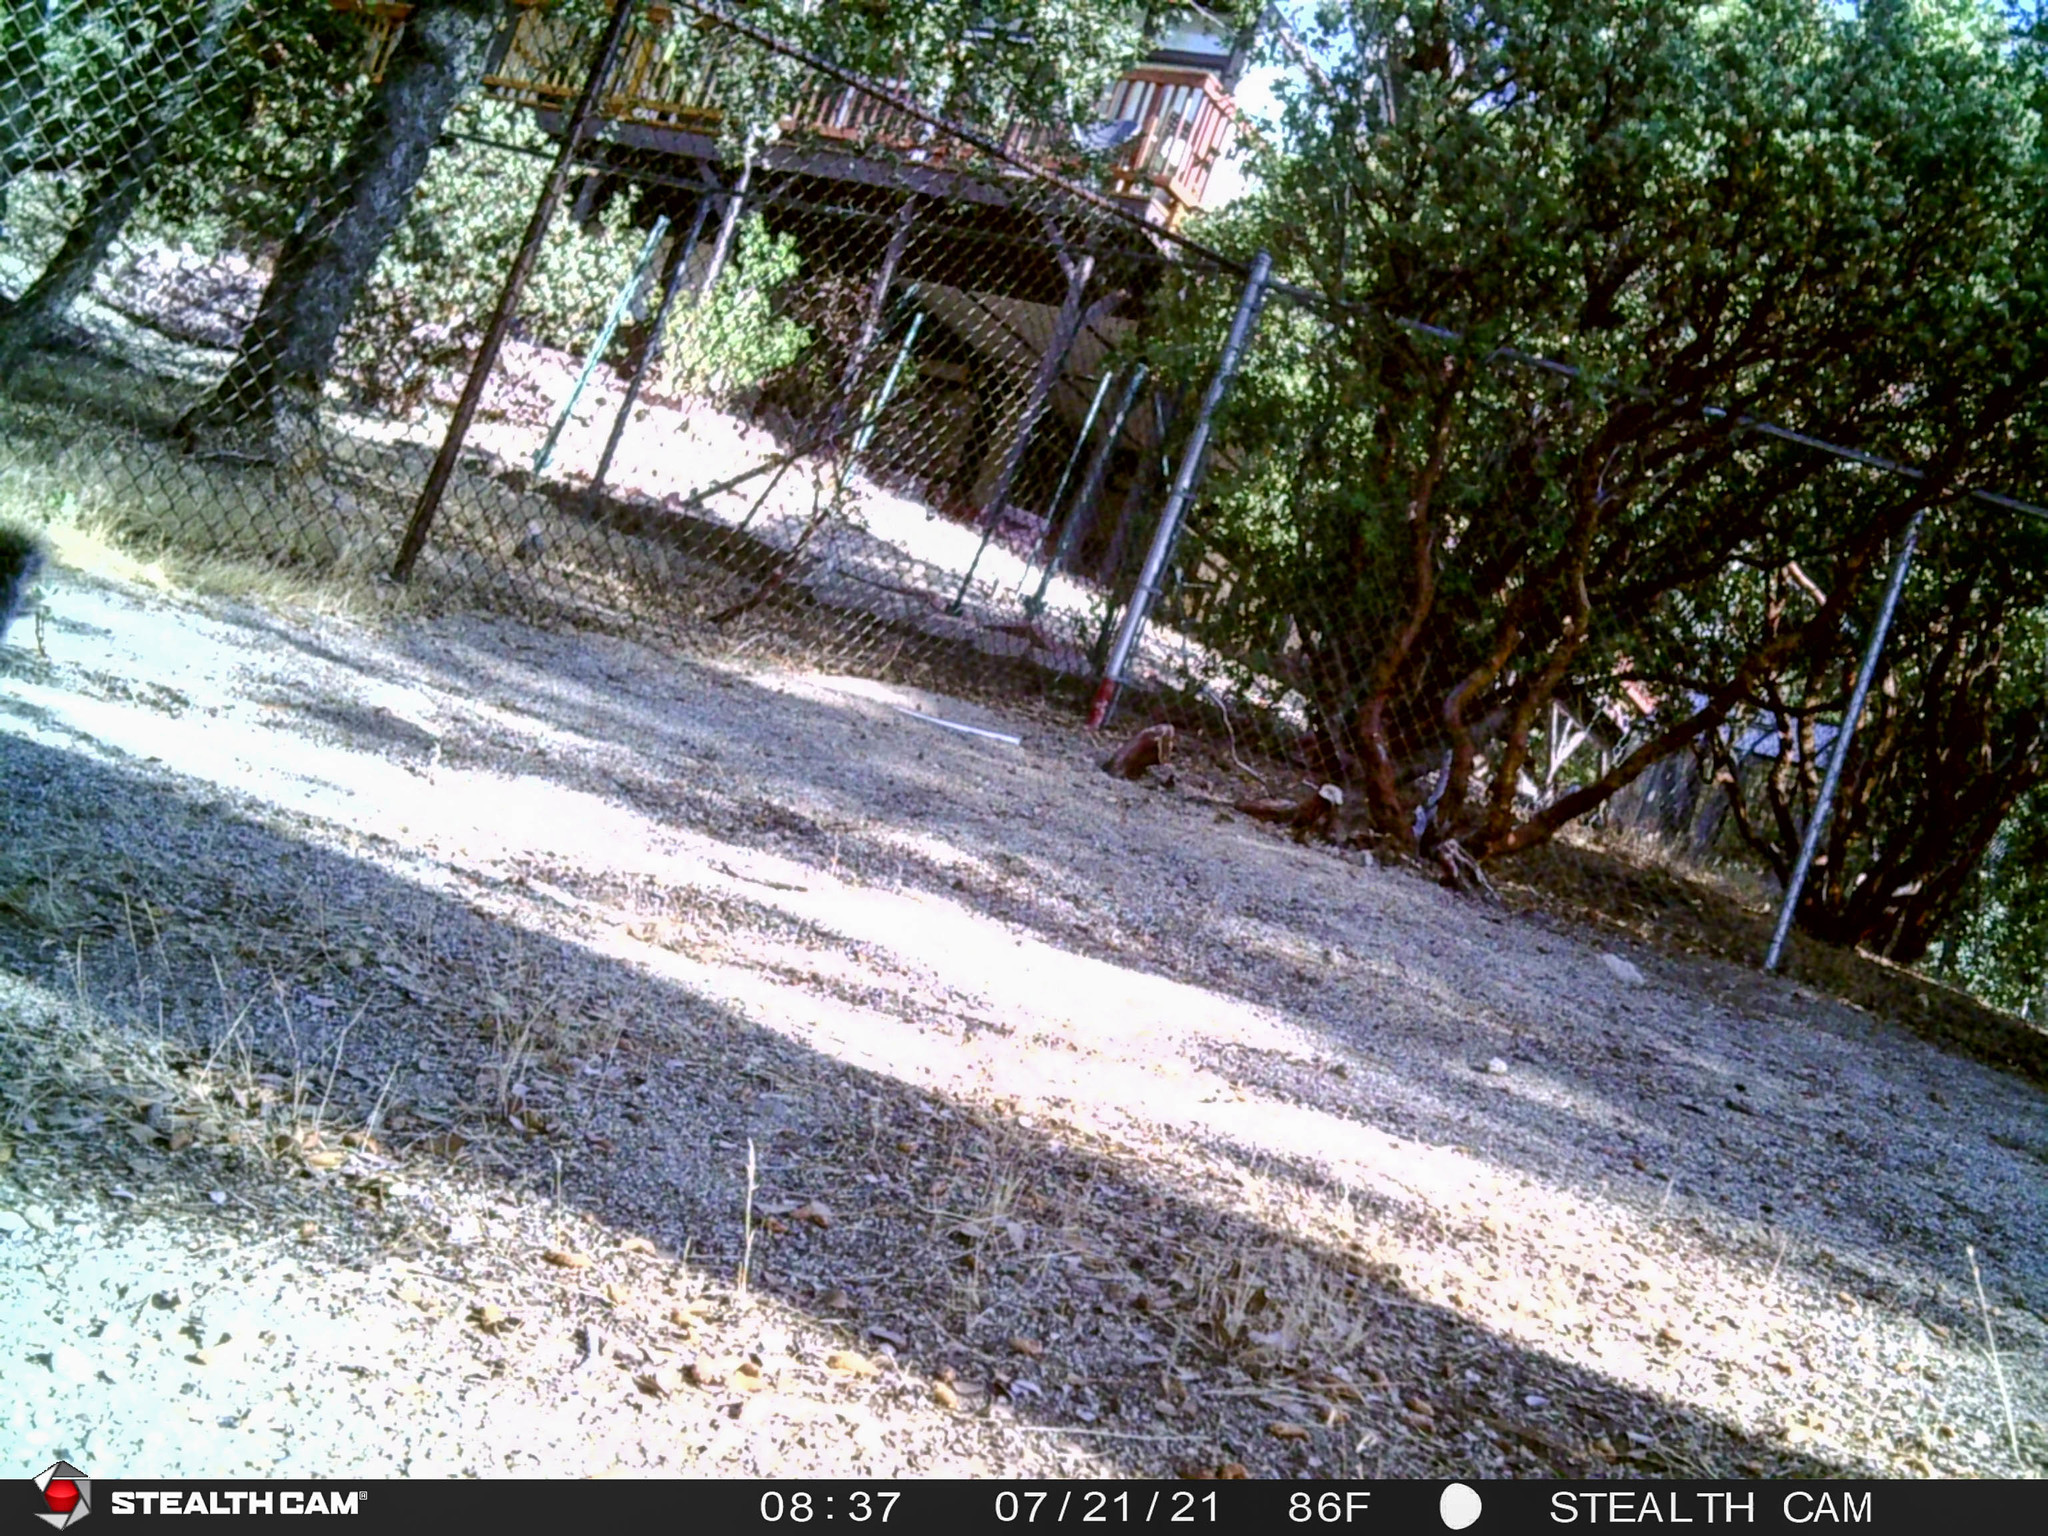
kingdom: Animalia
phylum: Chordata
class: Mammalia
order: Rodentia
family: Sciuridae
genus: Sciurus
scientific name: Sciurus griseus
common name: Western gray squirrel
